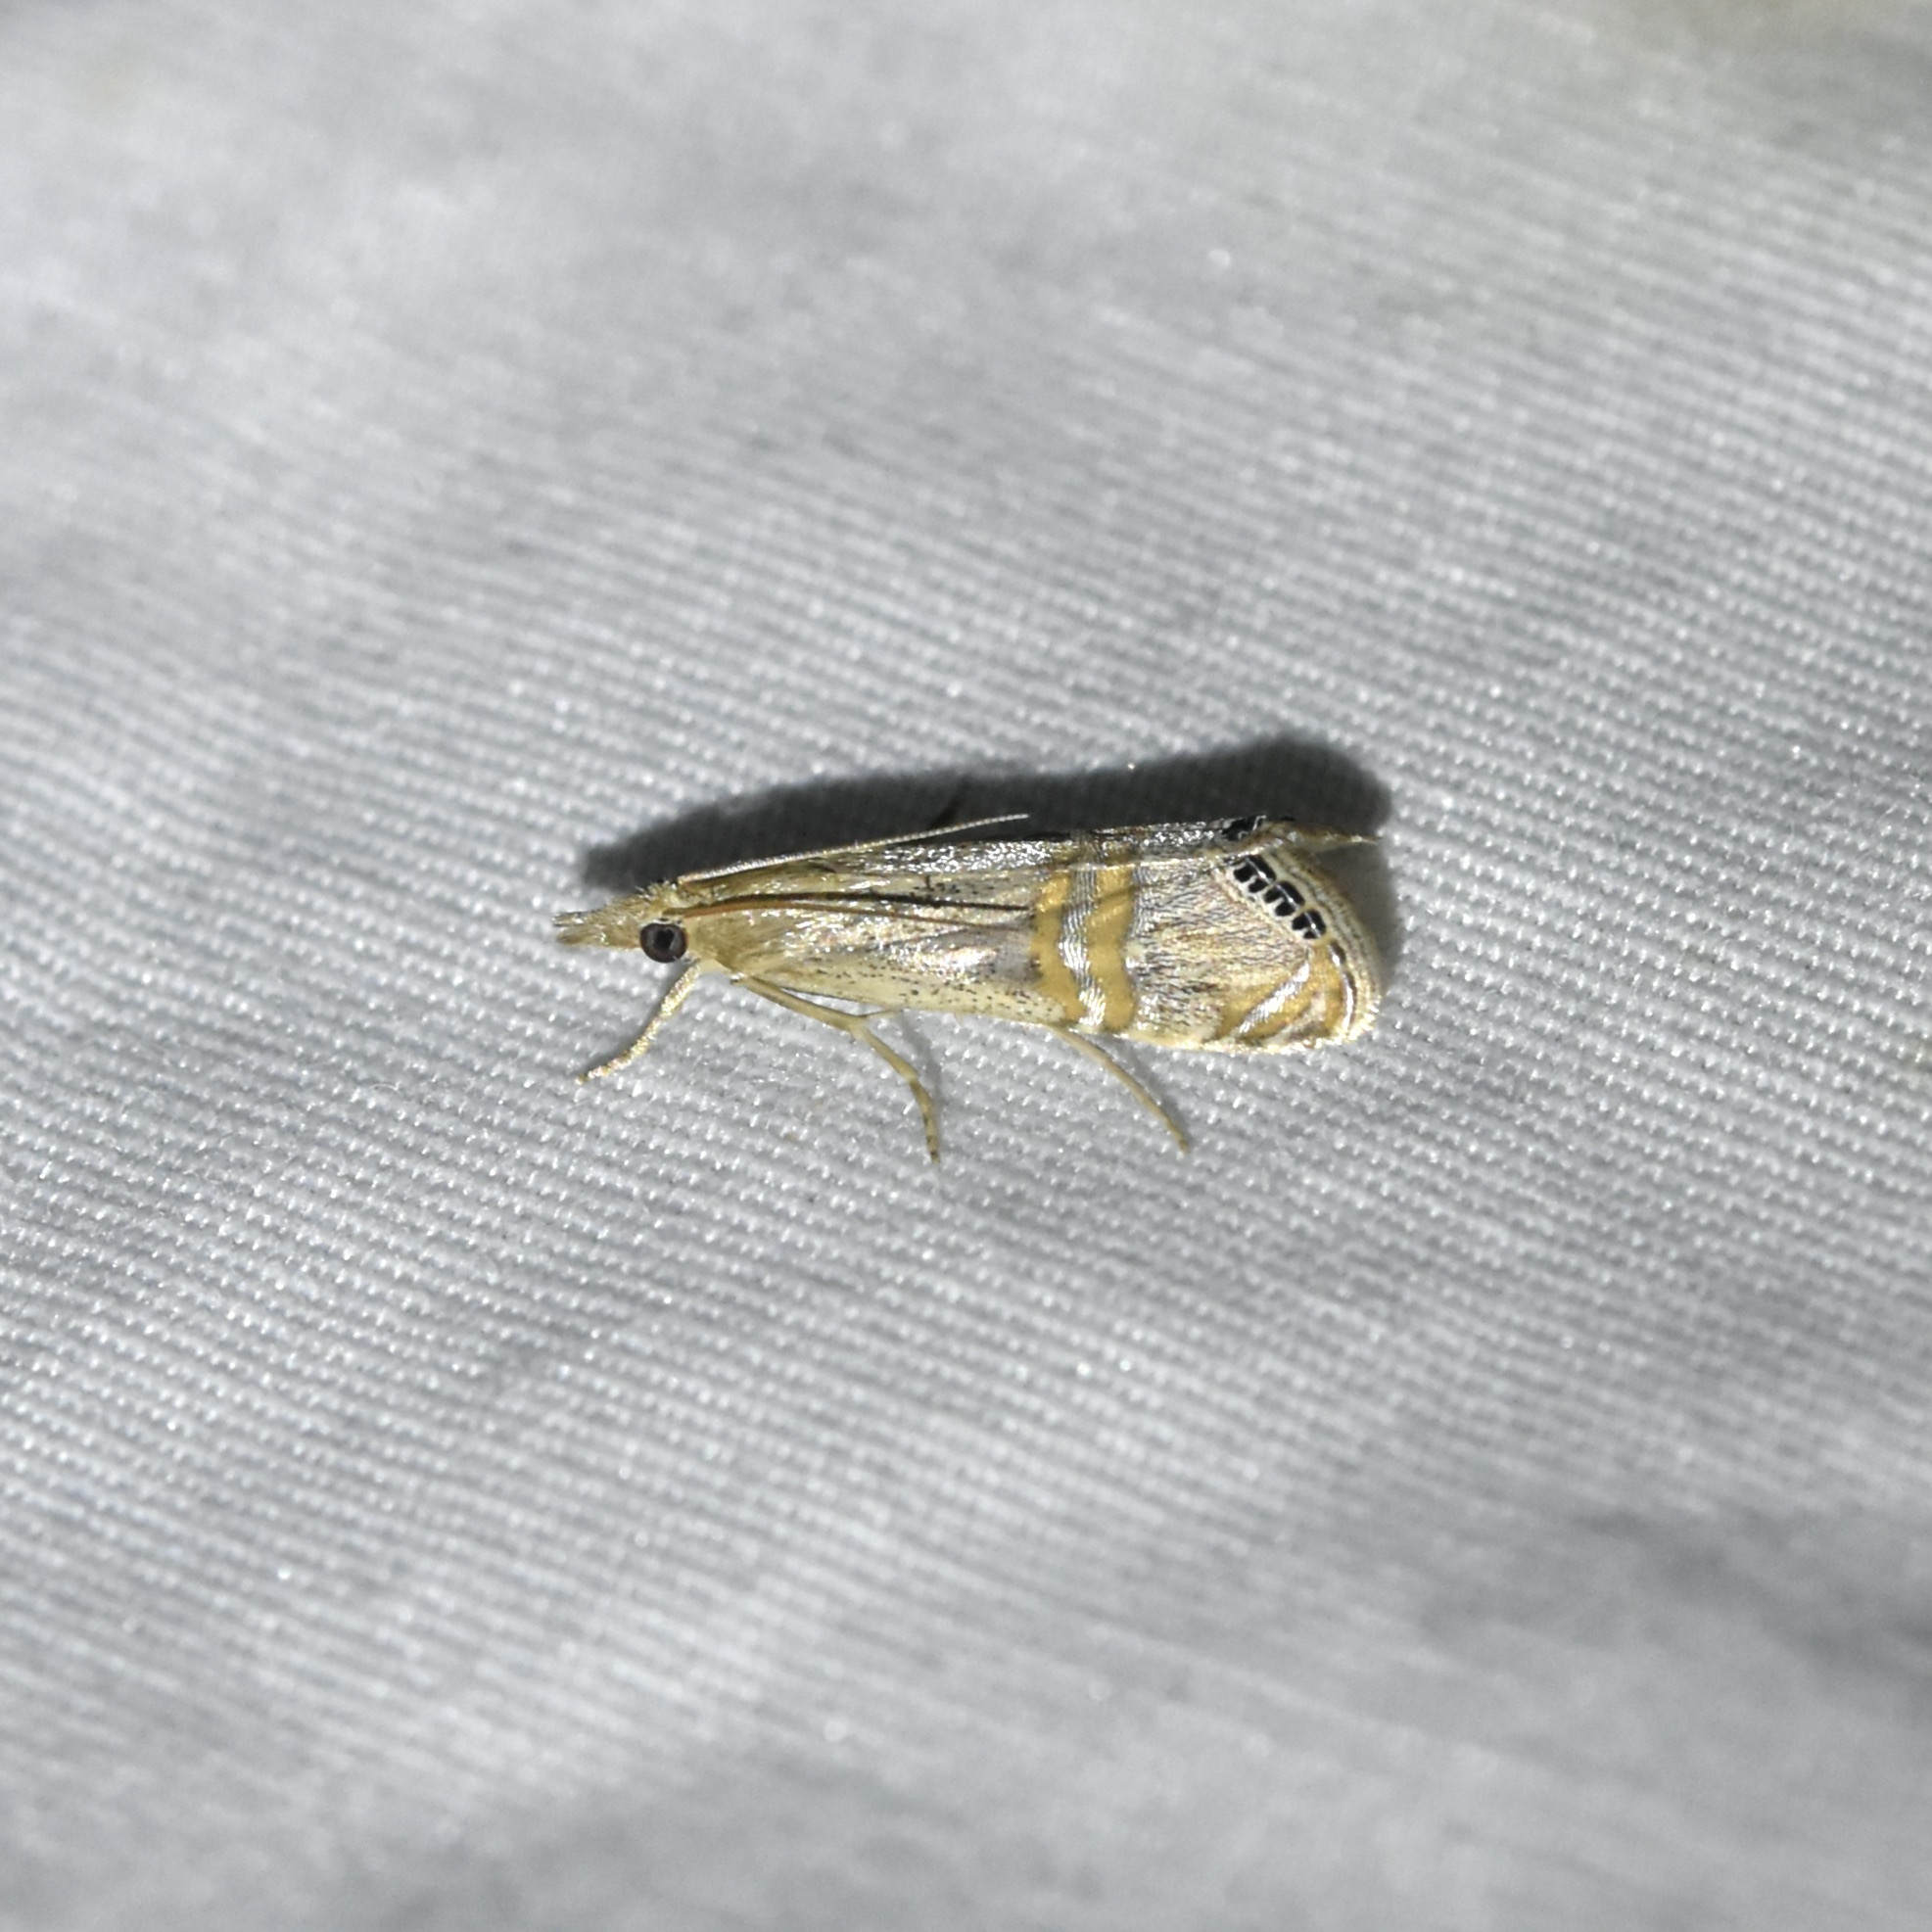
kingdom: Animalia
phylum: Arthropoda
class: Insecta
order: Lepidoptera
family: Crambidae
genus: Euchromius
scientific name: Euchromius ocellea
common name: Necklace veneer moth
